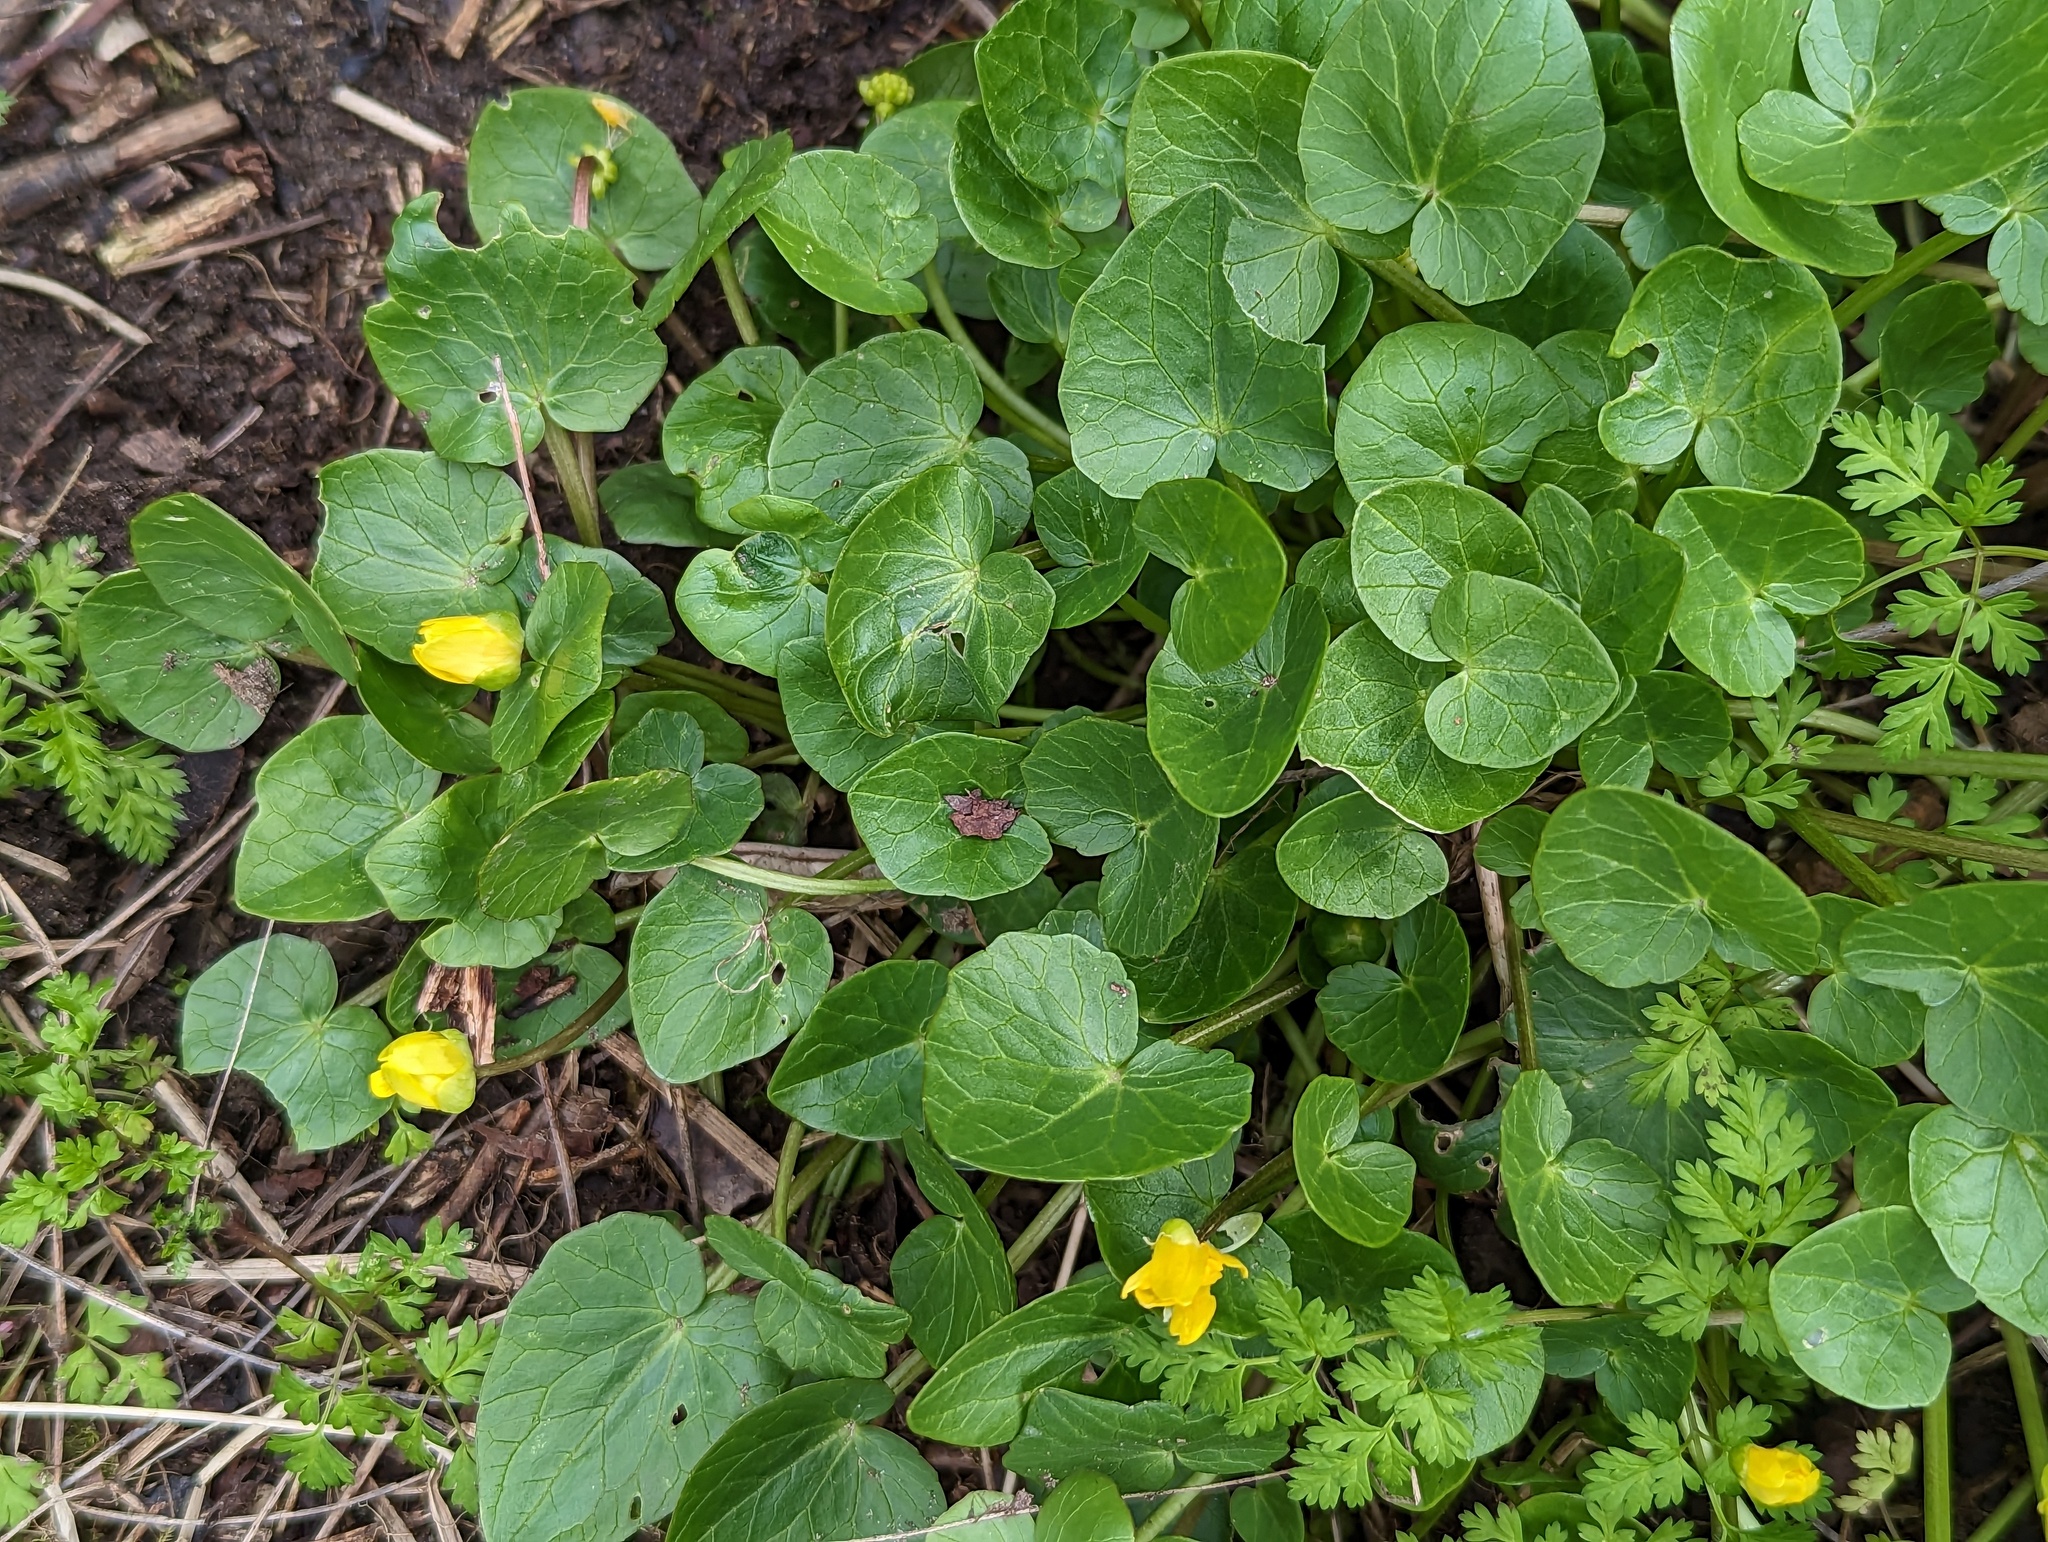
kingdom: Plantae
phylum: Tracheophyta
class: Magnoliopsida
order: Ranunculales
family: Ranunculaceae
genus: Ficaria
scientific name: Ficaria verna
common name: Lesser celandine
